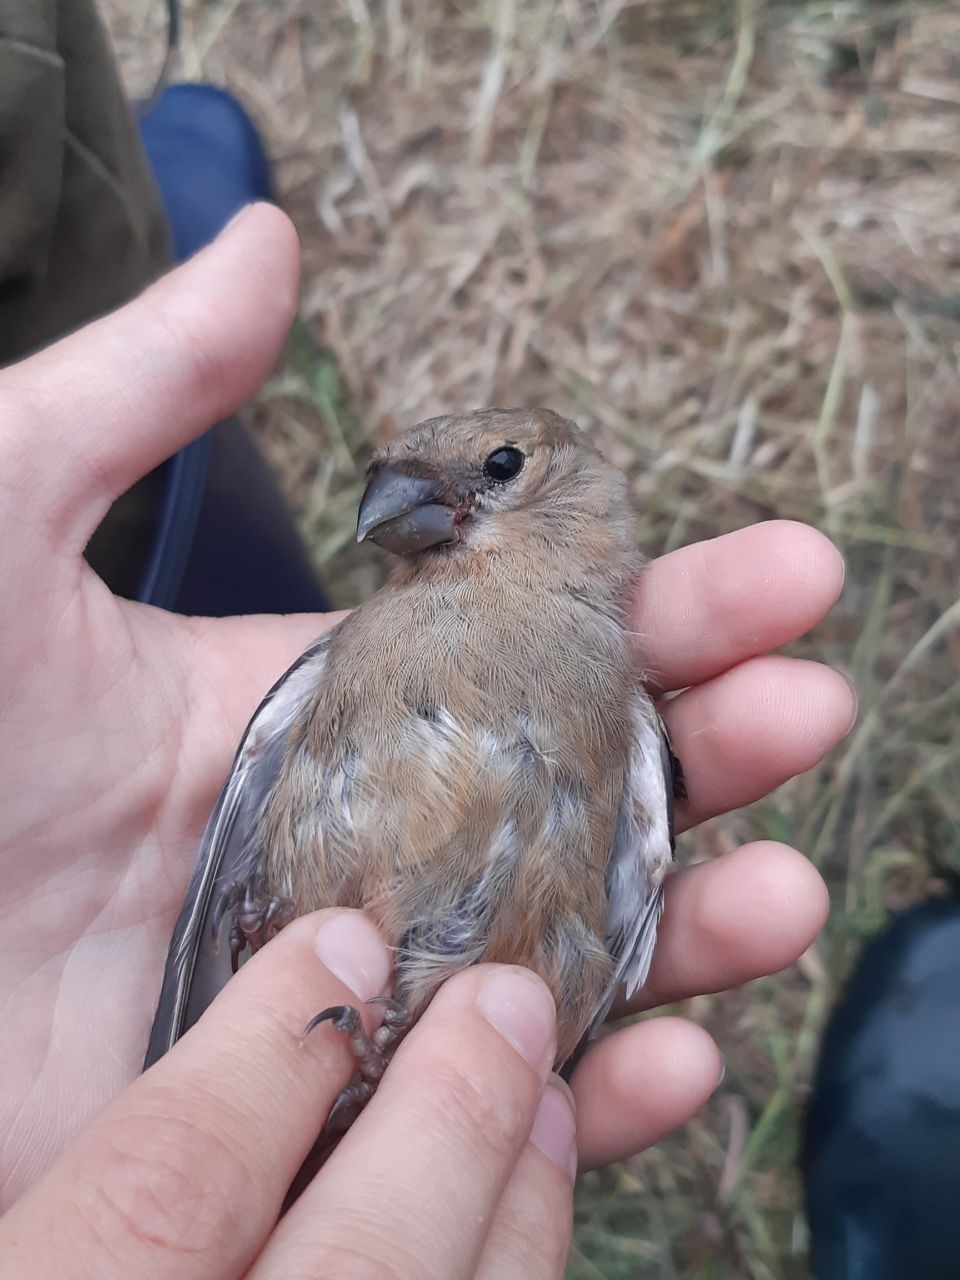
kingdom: Animalia
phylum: Chordata
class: Aves
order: Passeriformes
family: Fringillidae
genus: Pyrrhula
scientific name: Pyrrhula pyrrhula
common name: Eurasian bullfinch
